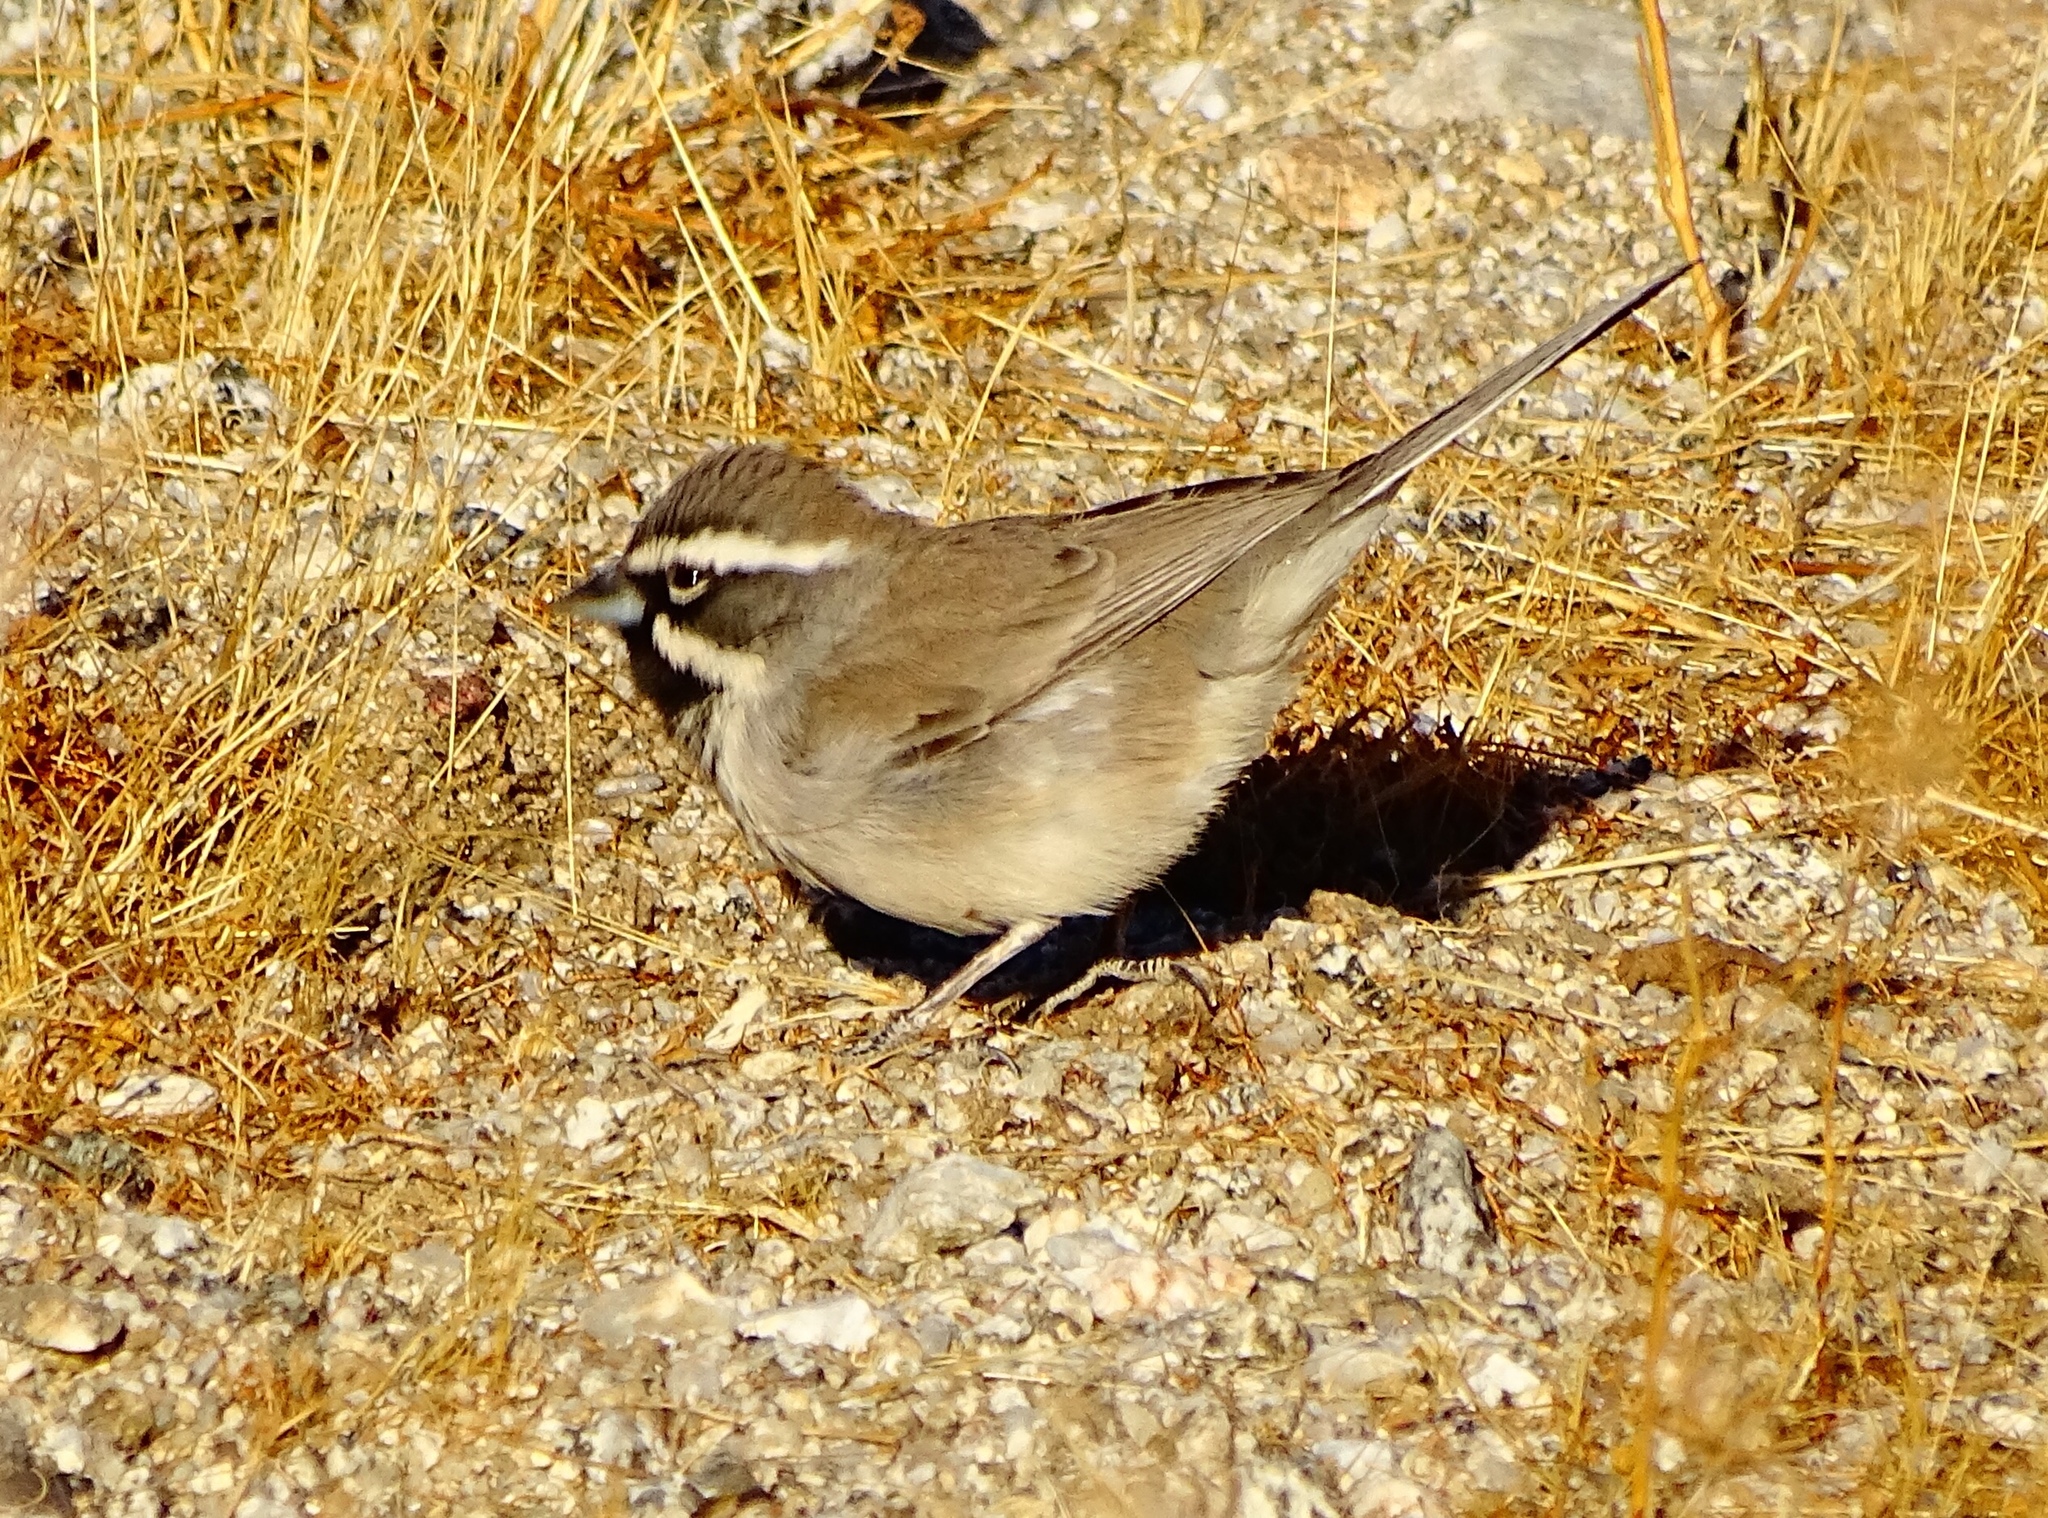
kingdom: Animalia
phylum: Chordata
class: Aves
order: Passeriformes
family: Passerellidae
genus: Amphispiza
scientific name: Amphispiza bilineata
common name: Black-throated sparrow
